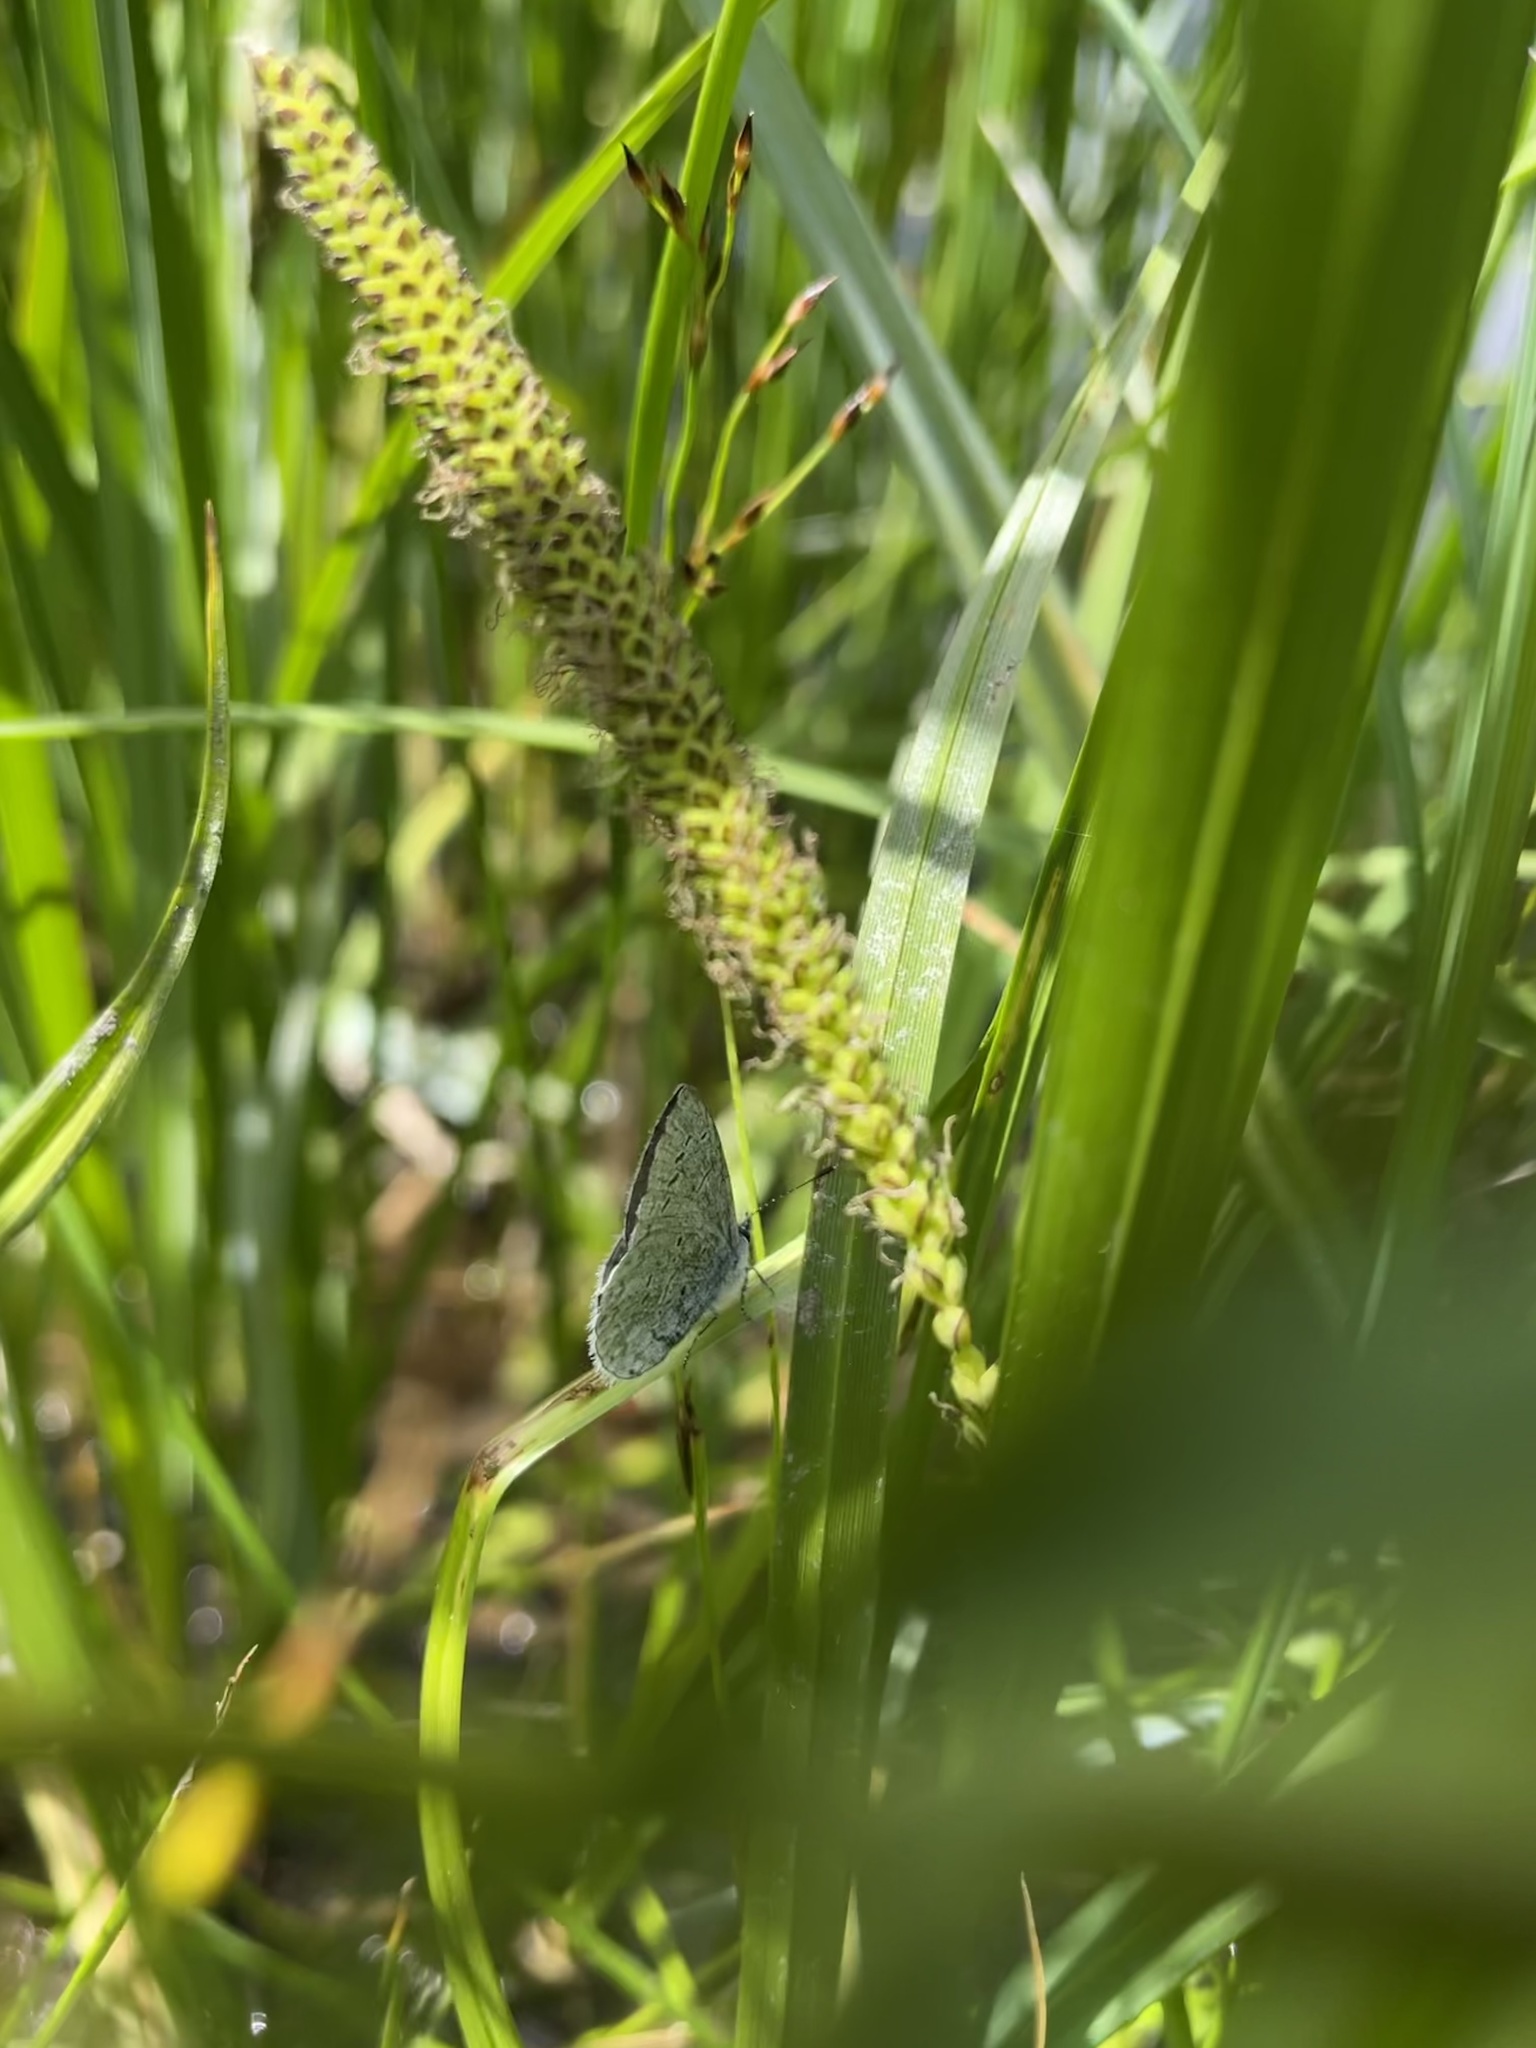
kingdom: Animalia
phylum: Arthropoda
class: Insecta
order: Lepidoptera
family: Lycaenidae
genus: Celastrina
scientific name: Celastrina ladon
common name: Spring azure
